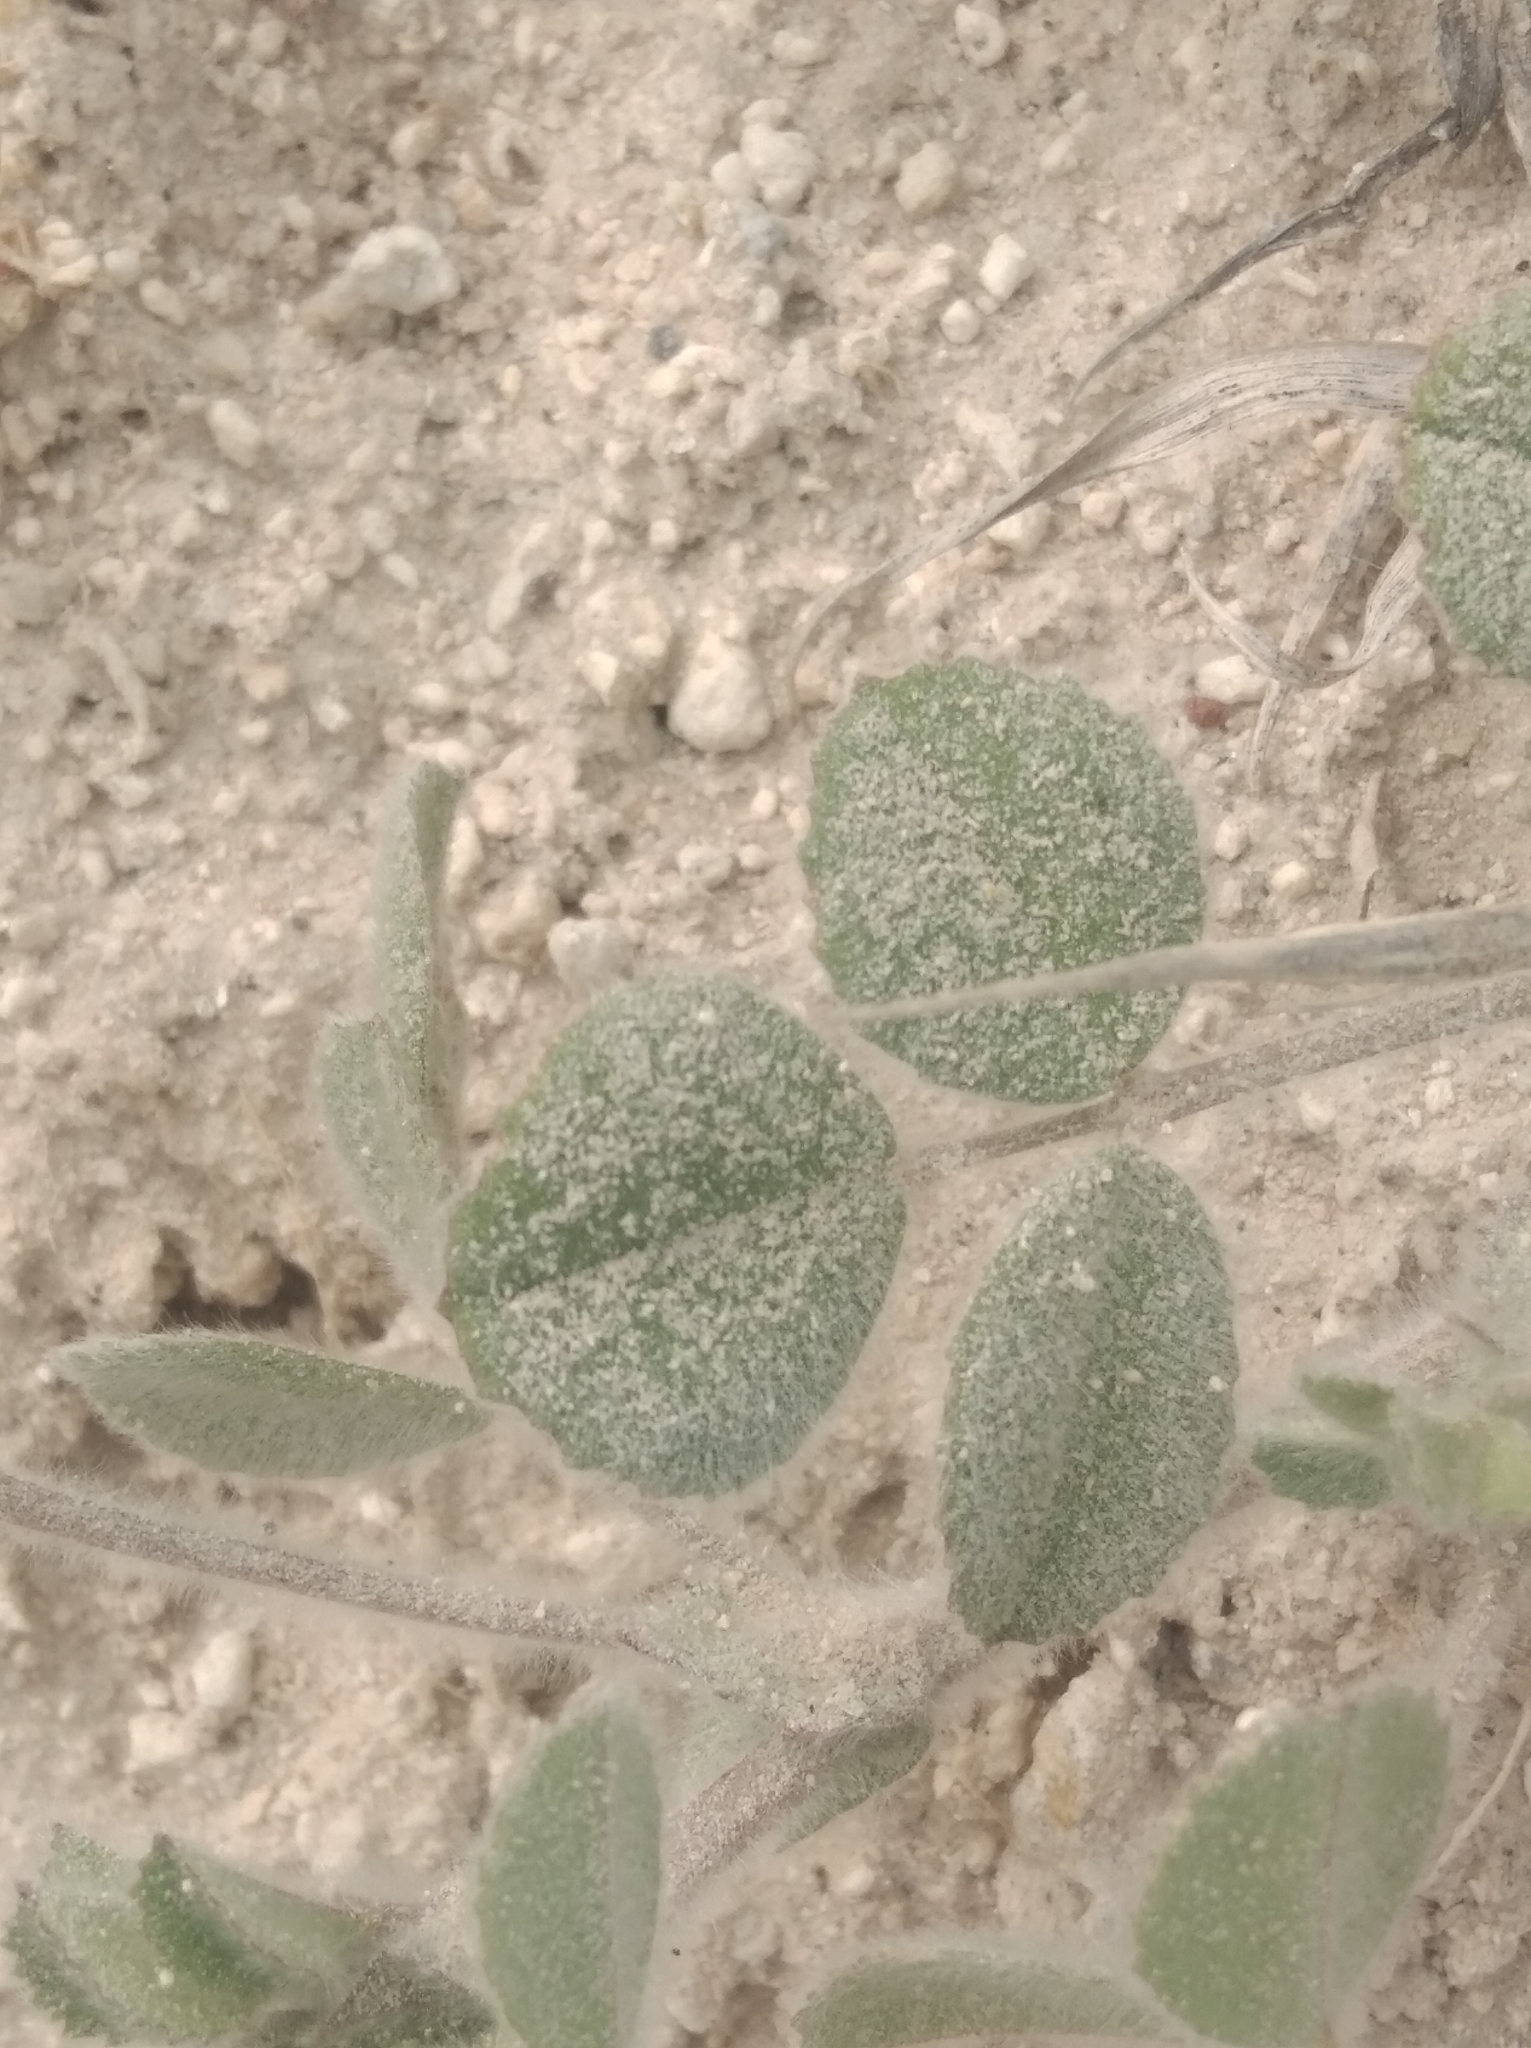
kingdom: Plantae
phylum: Tracheophyta
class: Magnoliopsida
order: Fabales
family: Fabaceae
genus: Trigonella
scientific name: Trigonella coerulescens
